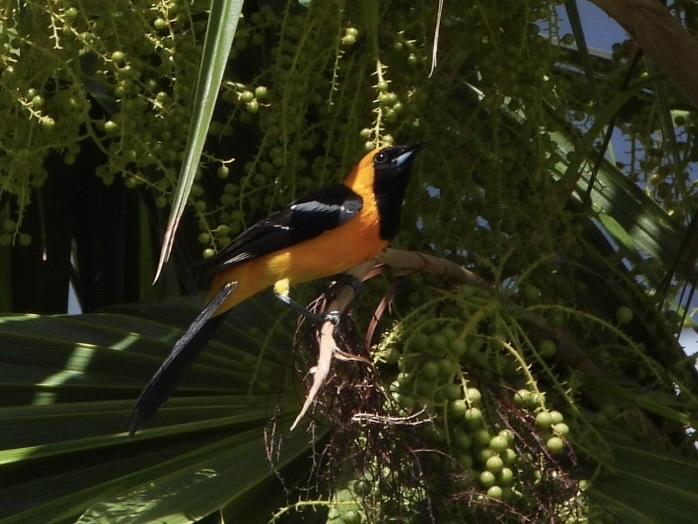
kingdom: Animalia
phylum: Chordata
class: Aves
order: Passeriformes
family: Icteridae
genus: Icterus
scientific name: Icterus cucullatus
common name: Hooded oriole
